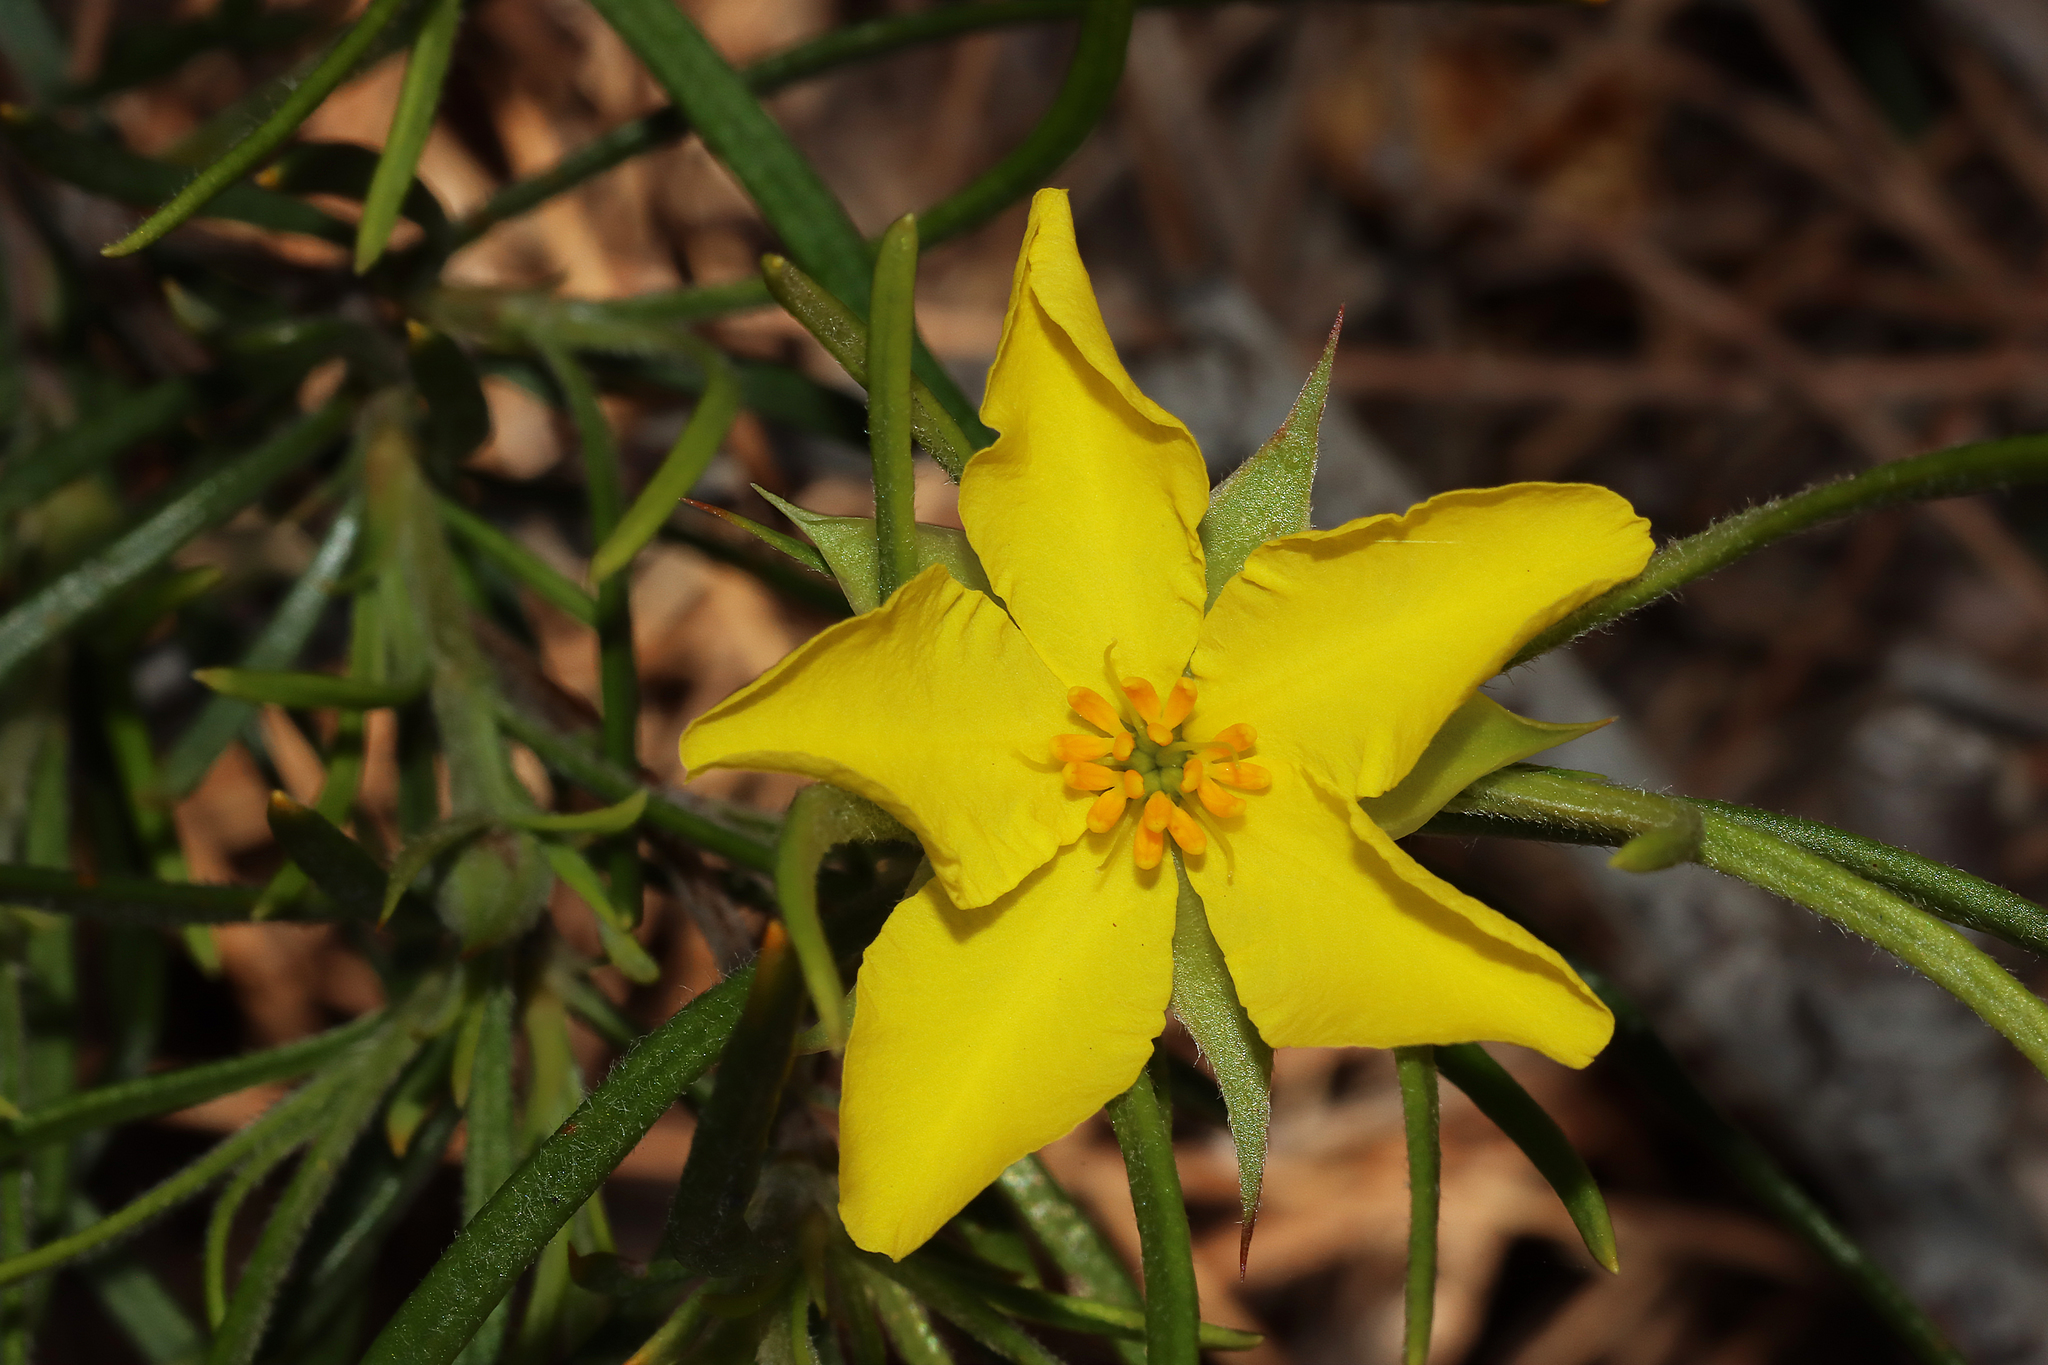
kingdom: Plantae
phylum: Tracheophyta
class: Magnoliopsida
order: Dilleniales
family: Dilleniaceae
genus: Hibbertia
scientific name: Hibbertia huegelii
